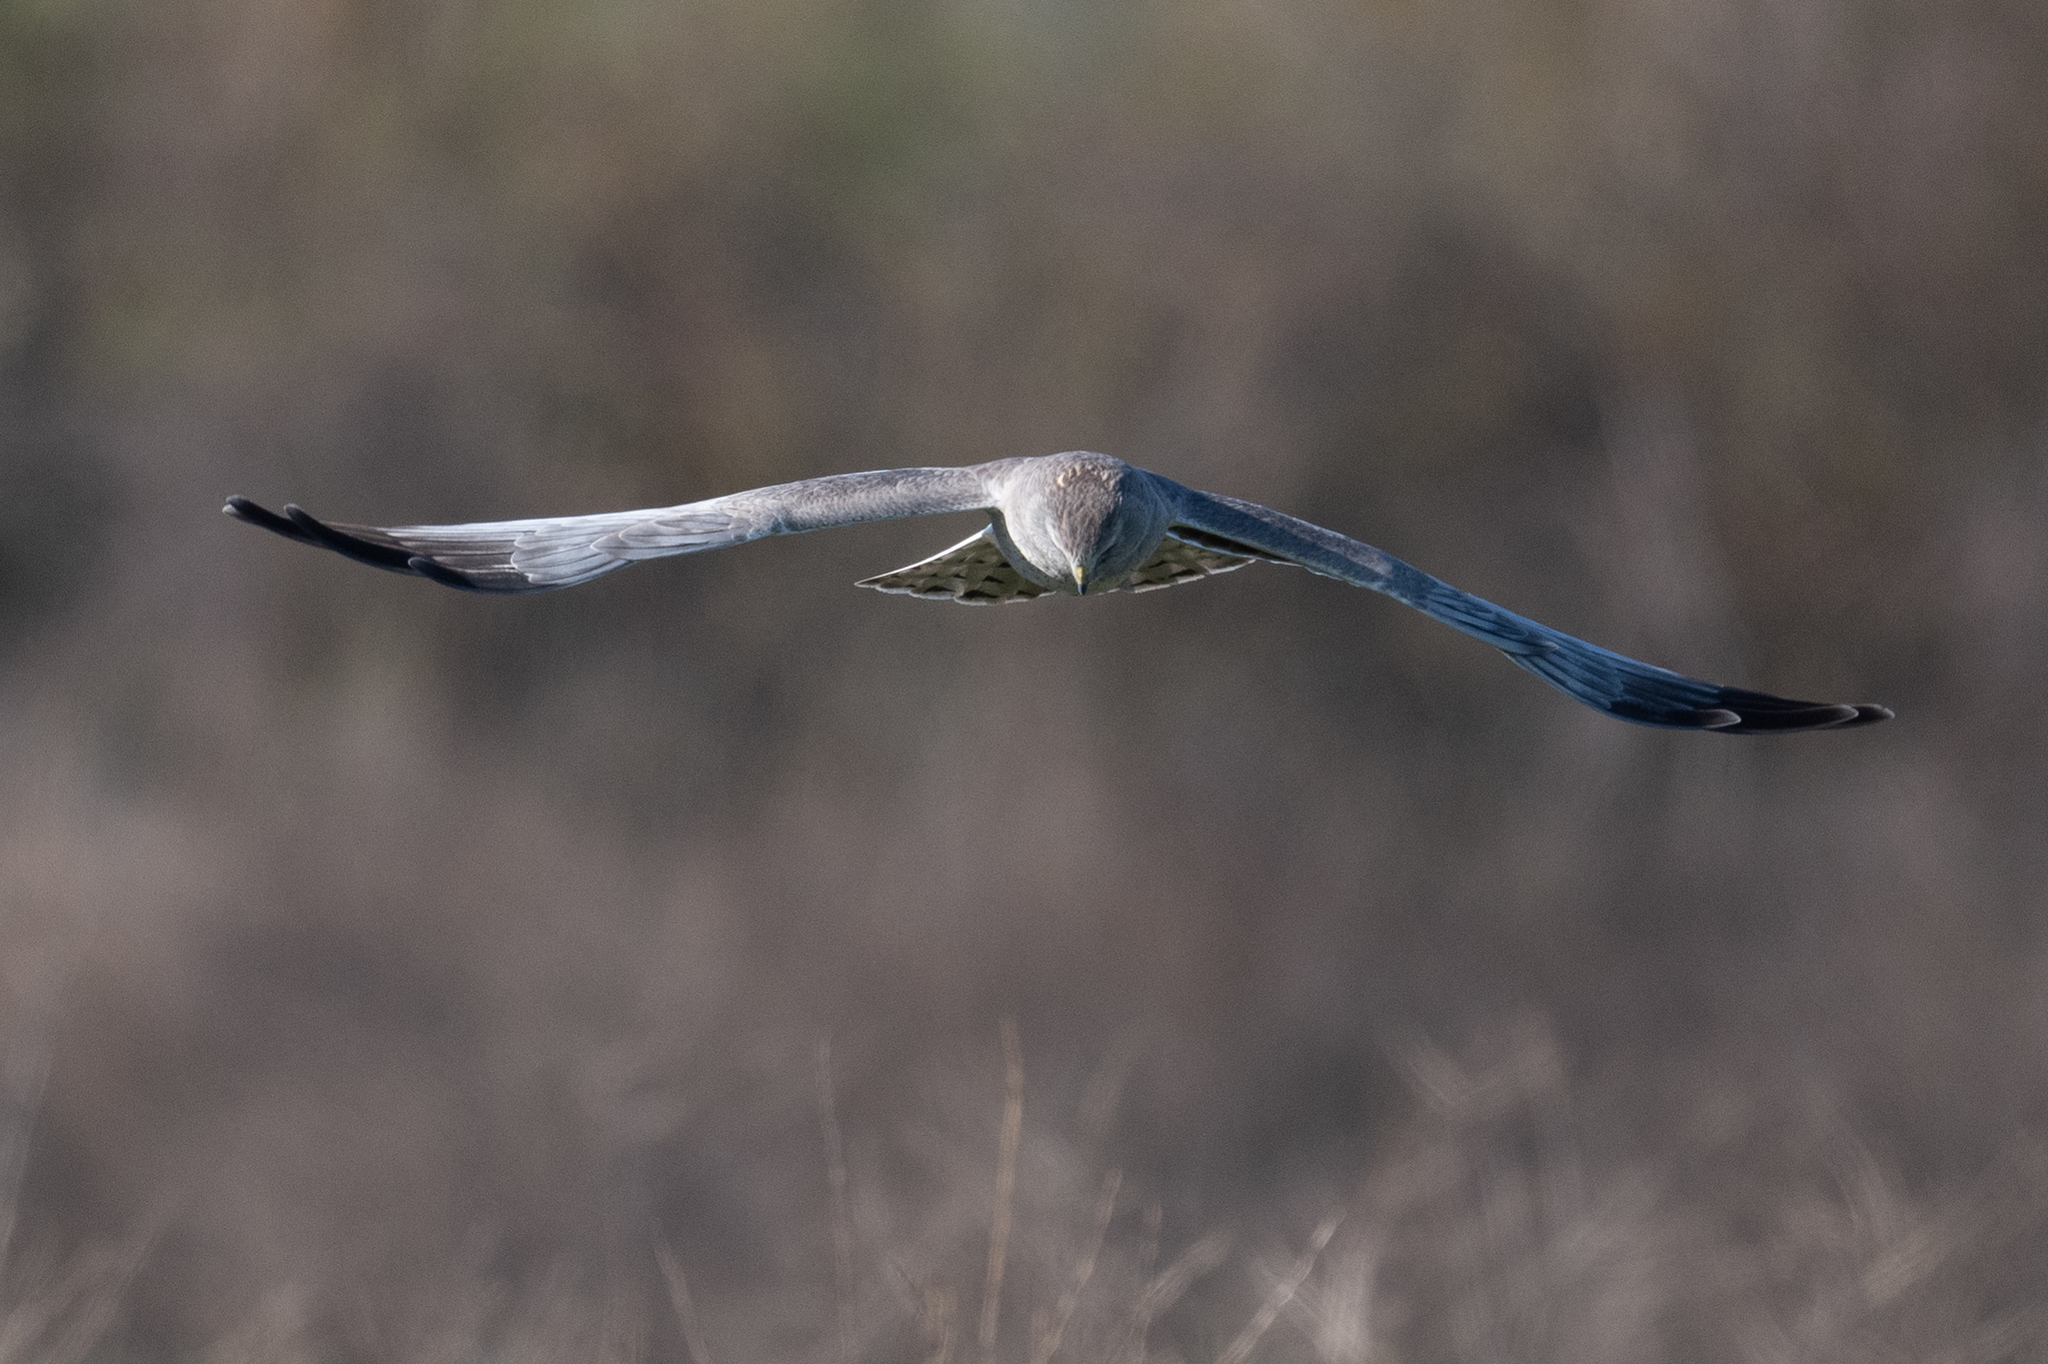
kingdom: Animalia
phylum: Chordata
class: Aves
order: Accipitriformes
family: Accipitridae
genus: Circus
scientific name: Circus cyaneus
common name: Hen harrier
